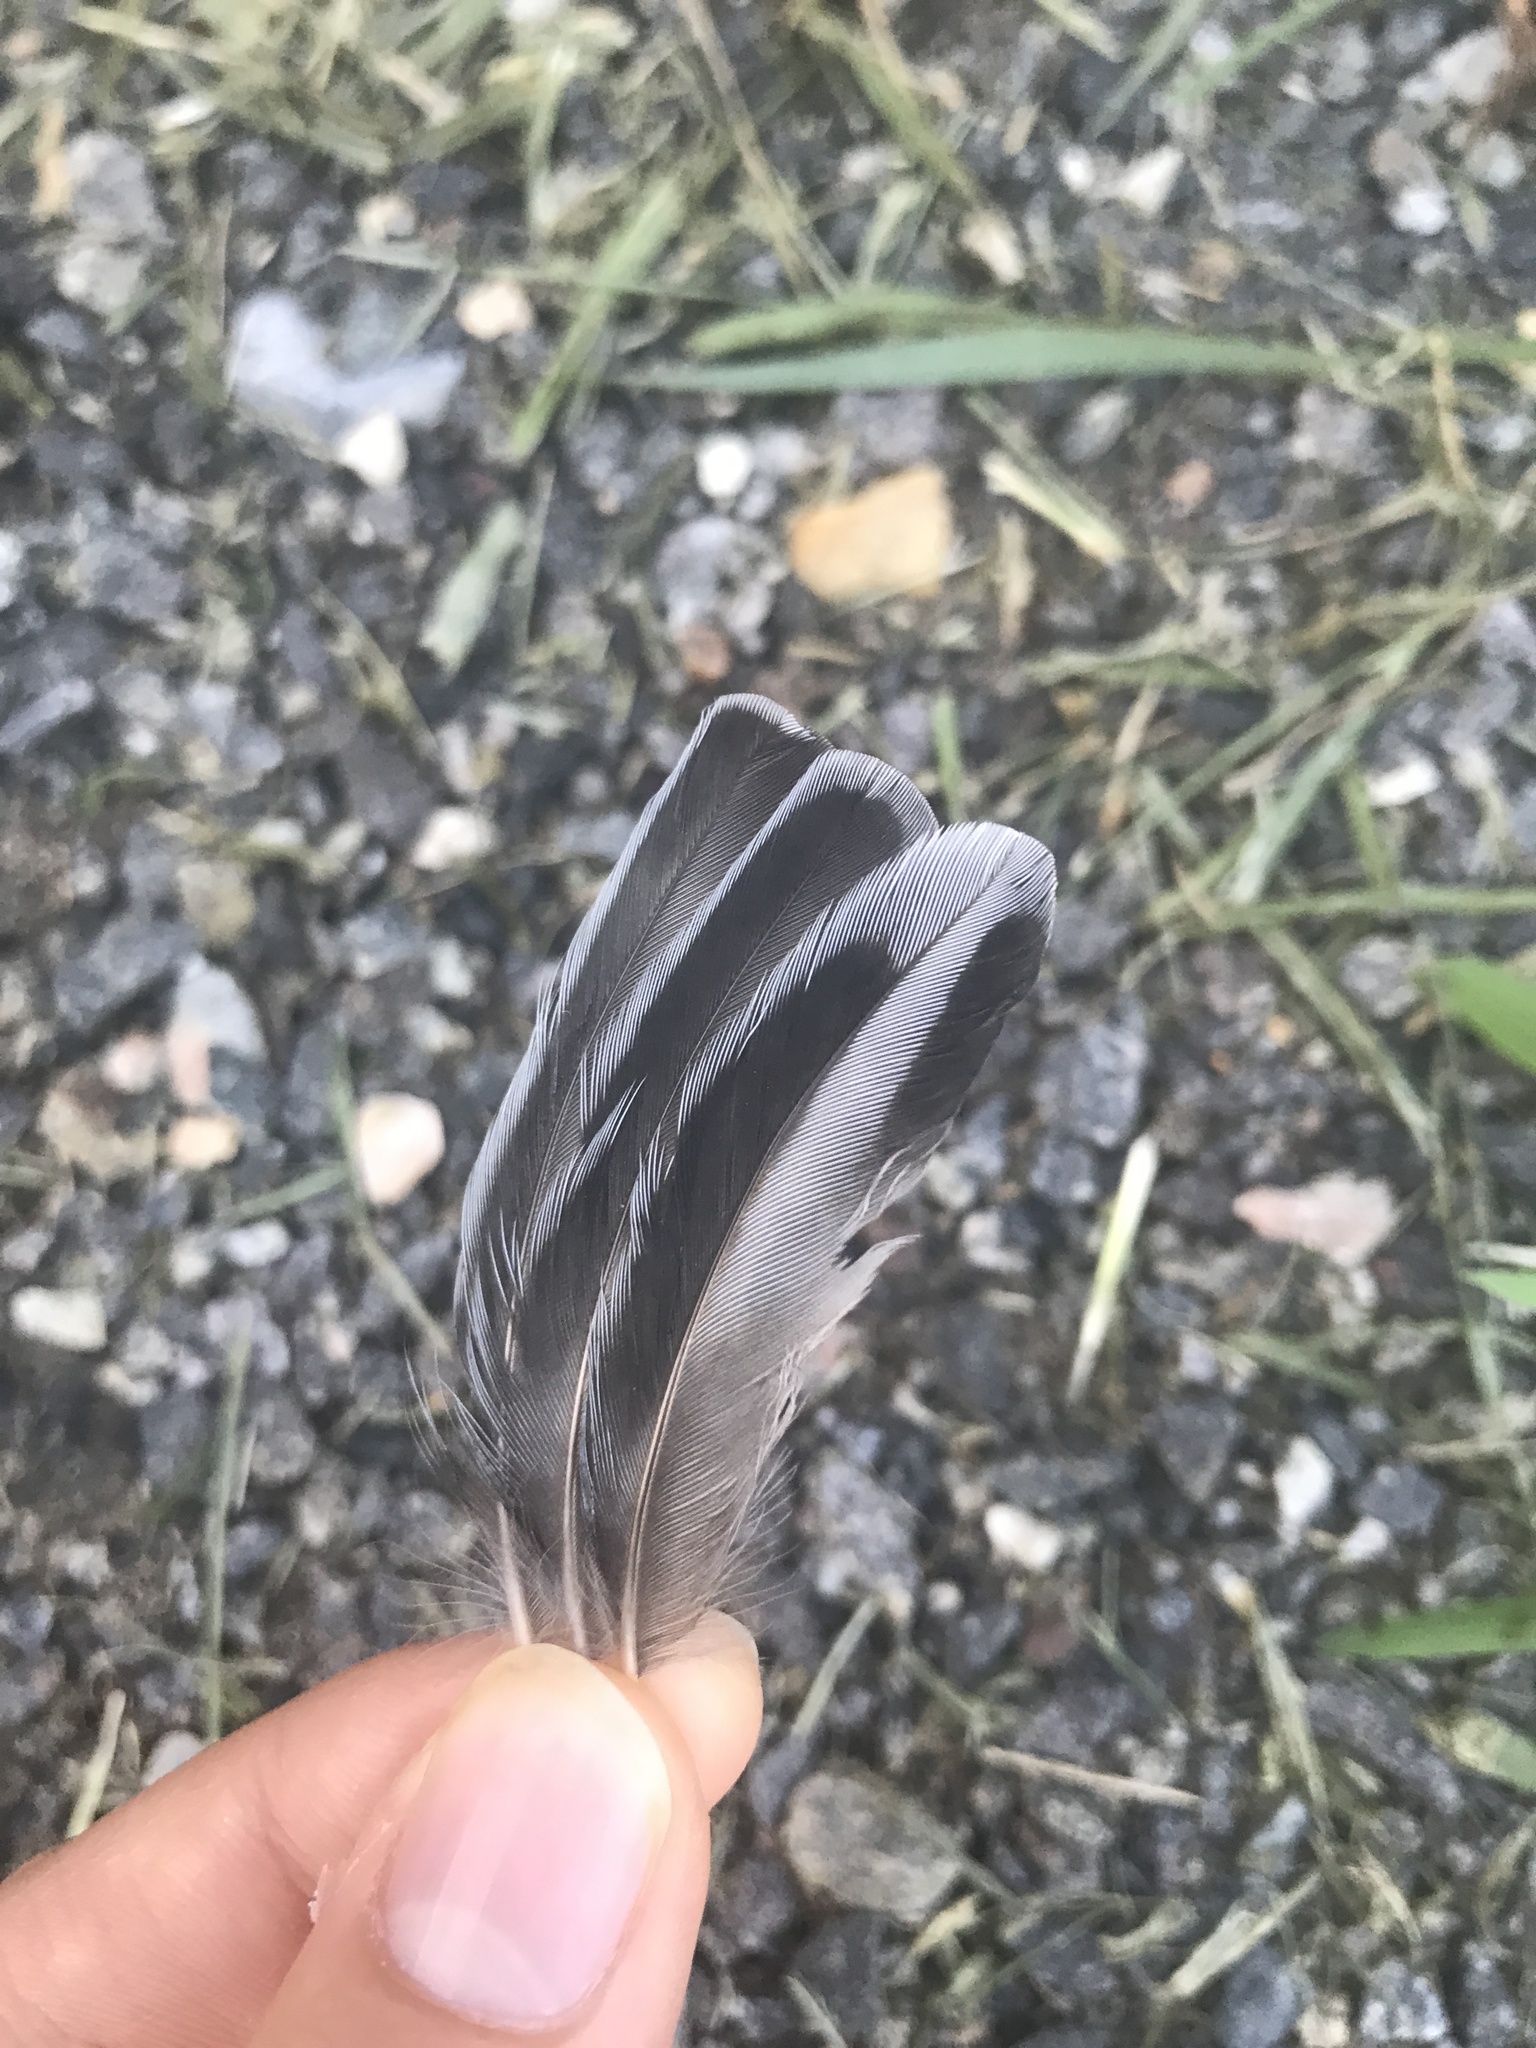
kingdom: Animalia
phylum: Chordata
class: Aves
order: Passeriformes
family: Sittidae
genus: Sitta
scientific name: Sitta carolinensis
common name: White-breasted nuthatch
